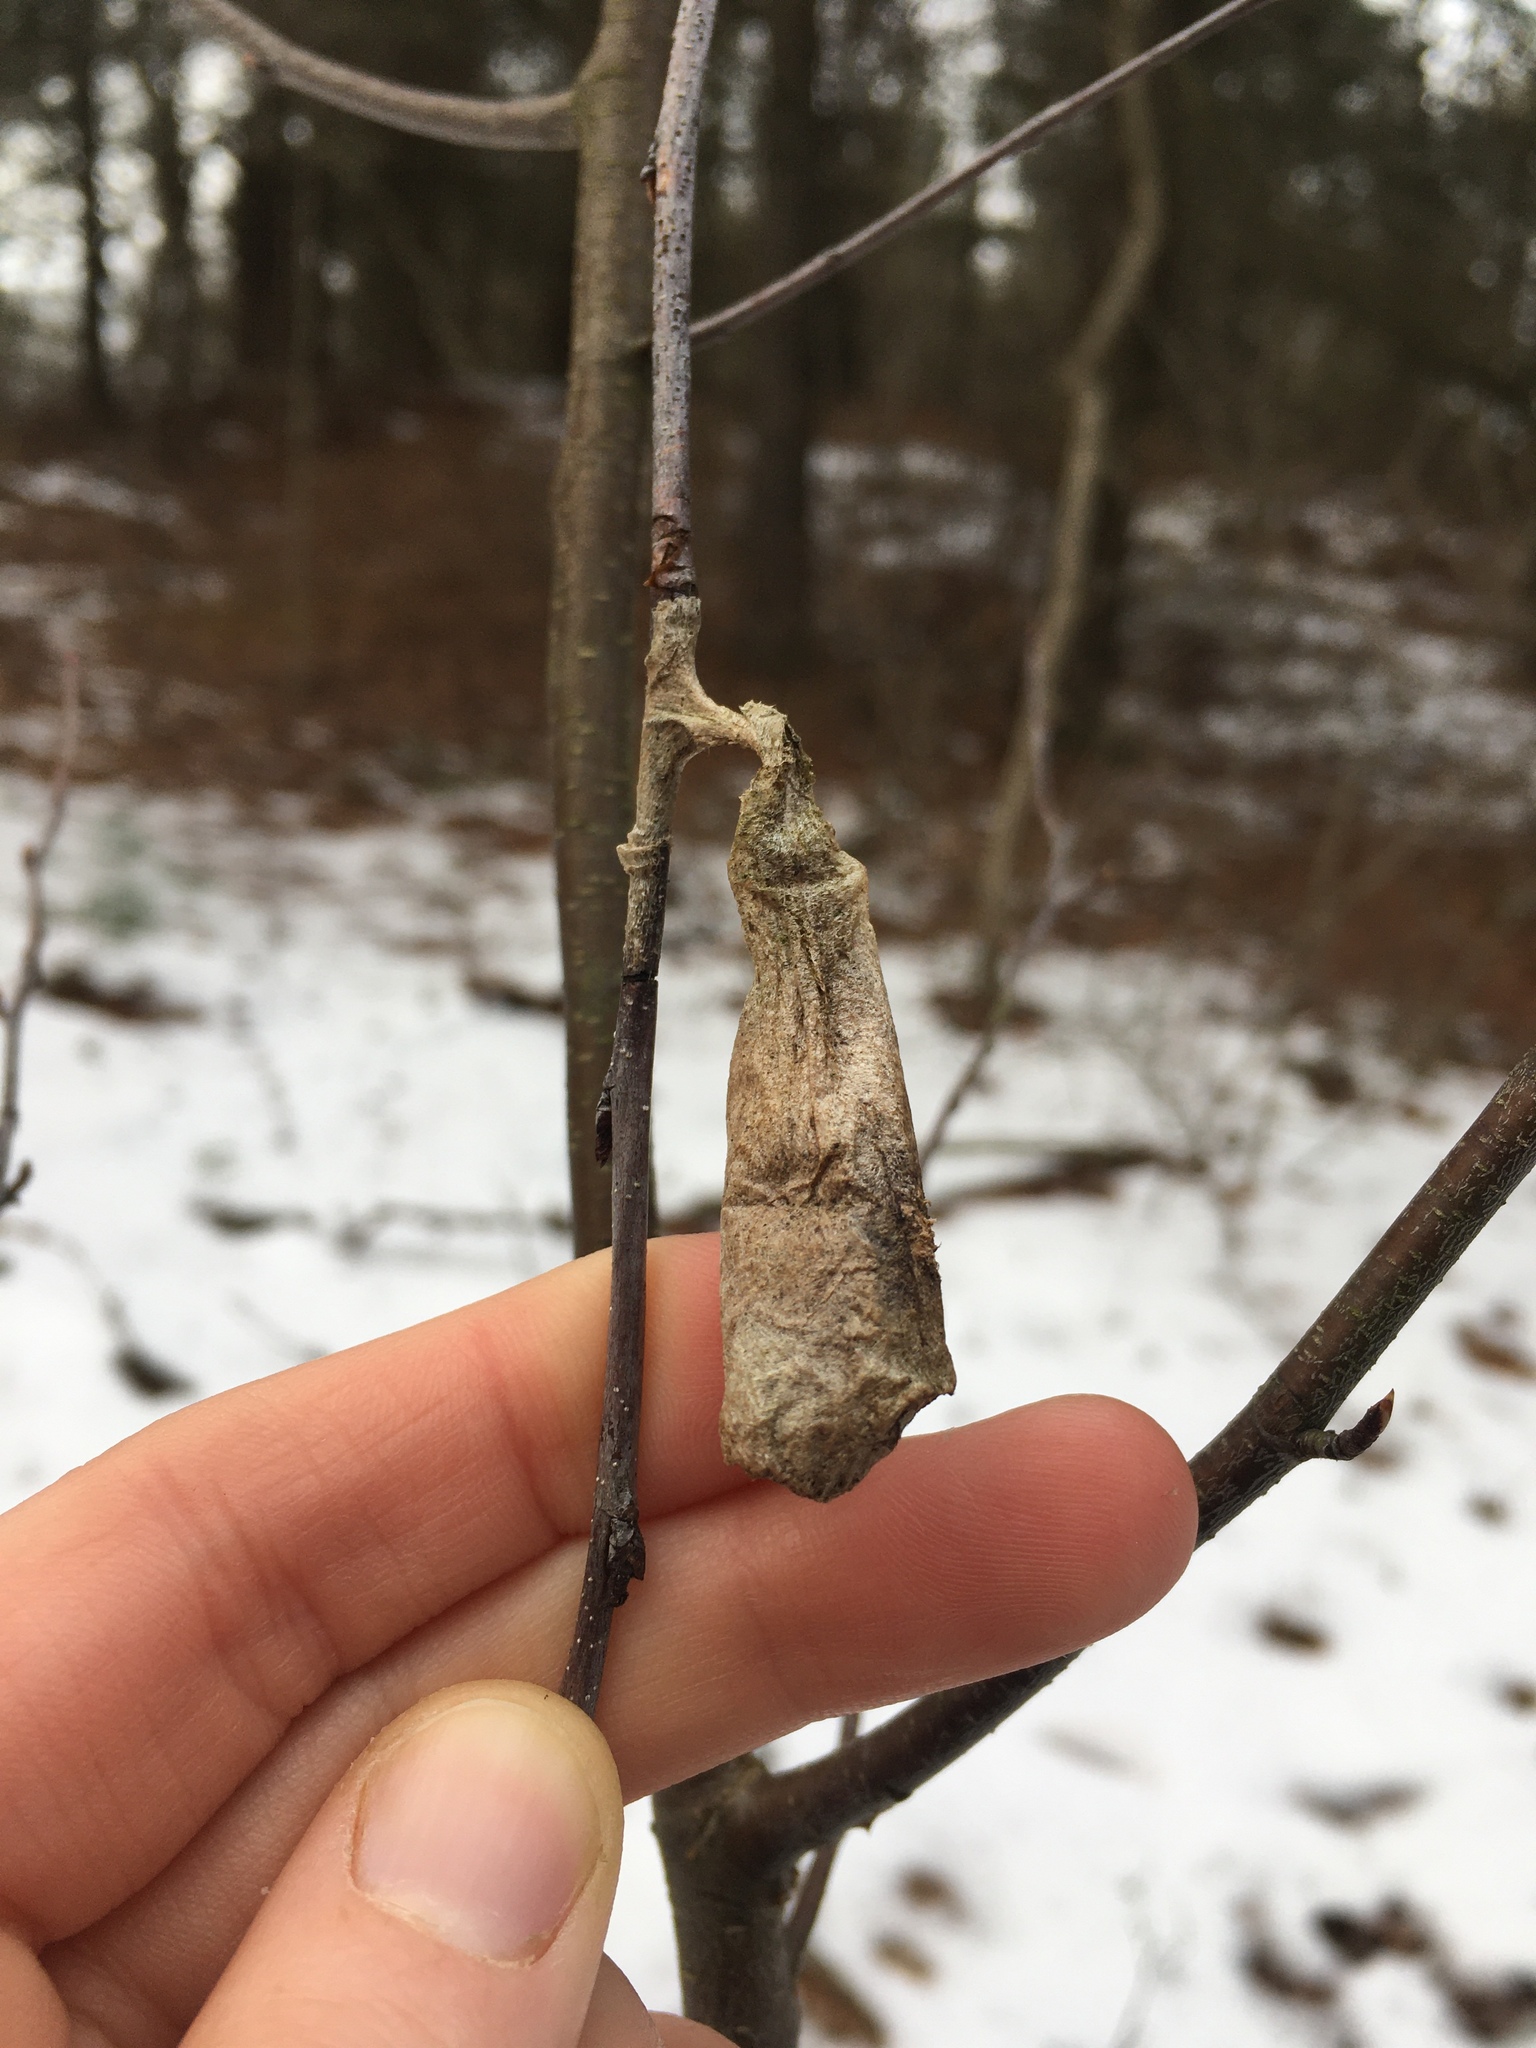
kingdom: Animalia
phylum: Arthropoda
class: Insecta
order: Lepidoptera
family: Saturniidae
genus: Callosamia
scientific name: Callosamia promethea
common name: Promethea silkmoth
